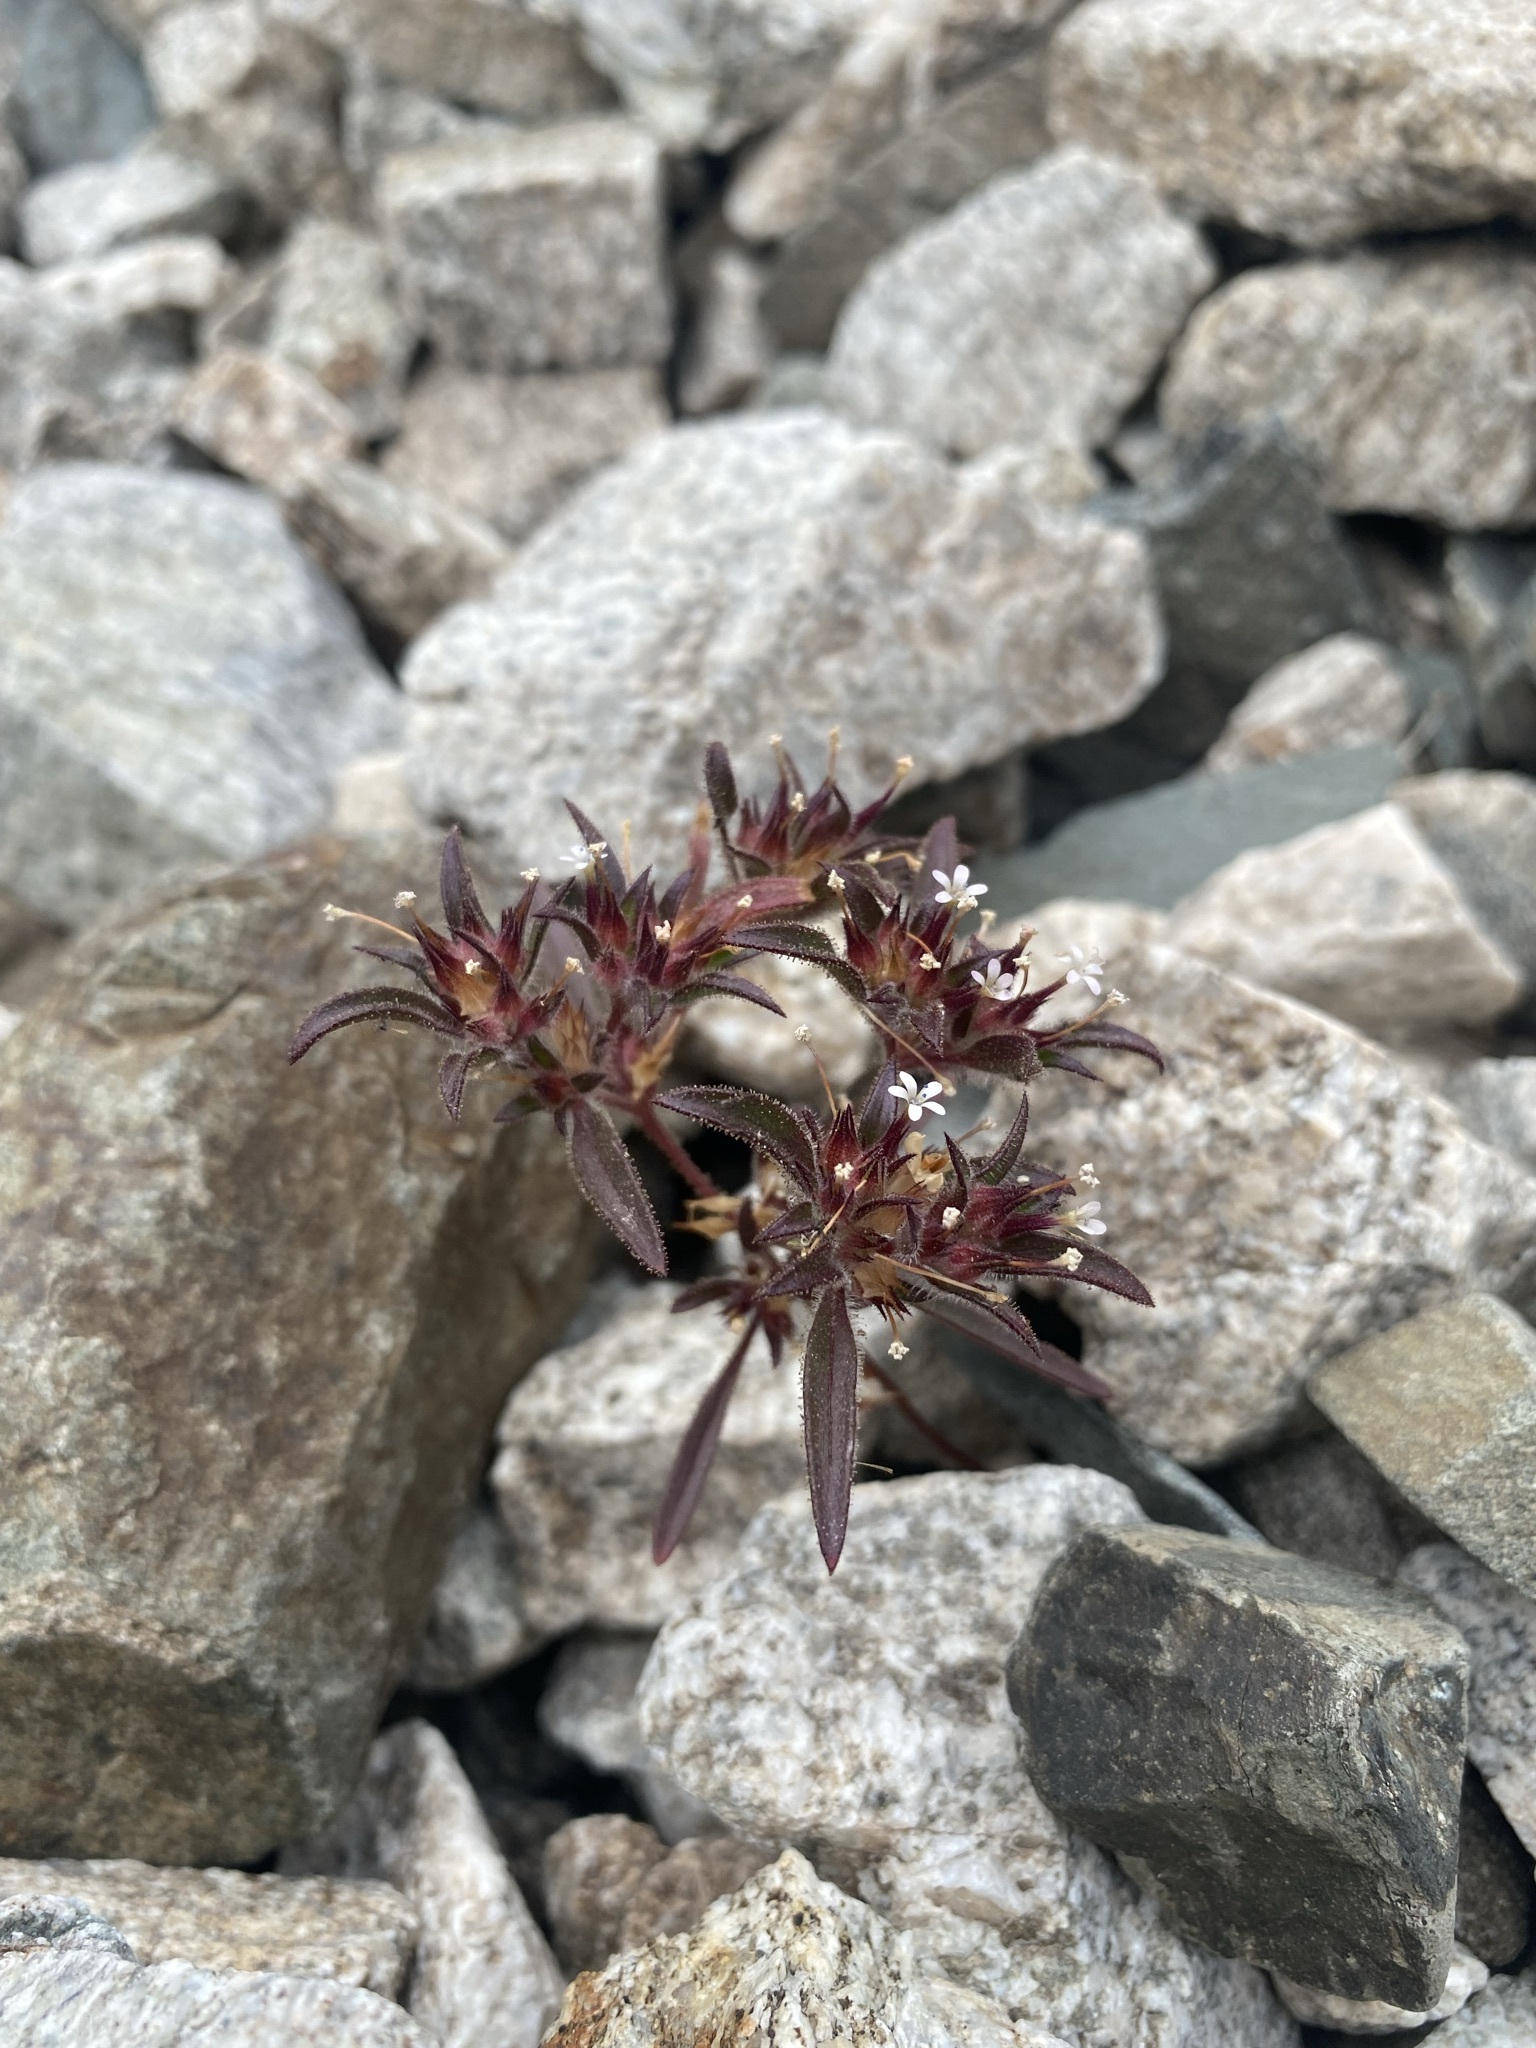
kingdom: Plantae
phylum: Tracheophyta
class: Magnoliopsida
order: Ericales
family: Polemoniaceae
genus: Collomia
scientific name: Collomia tinctoria
